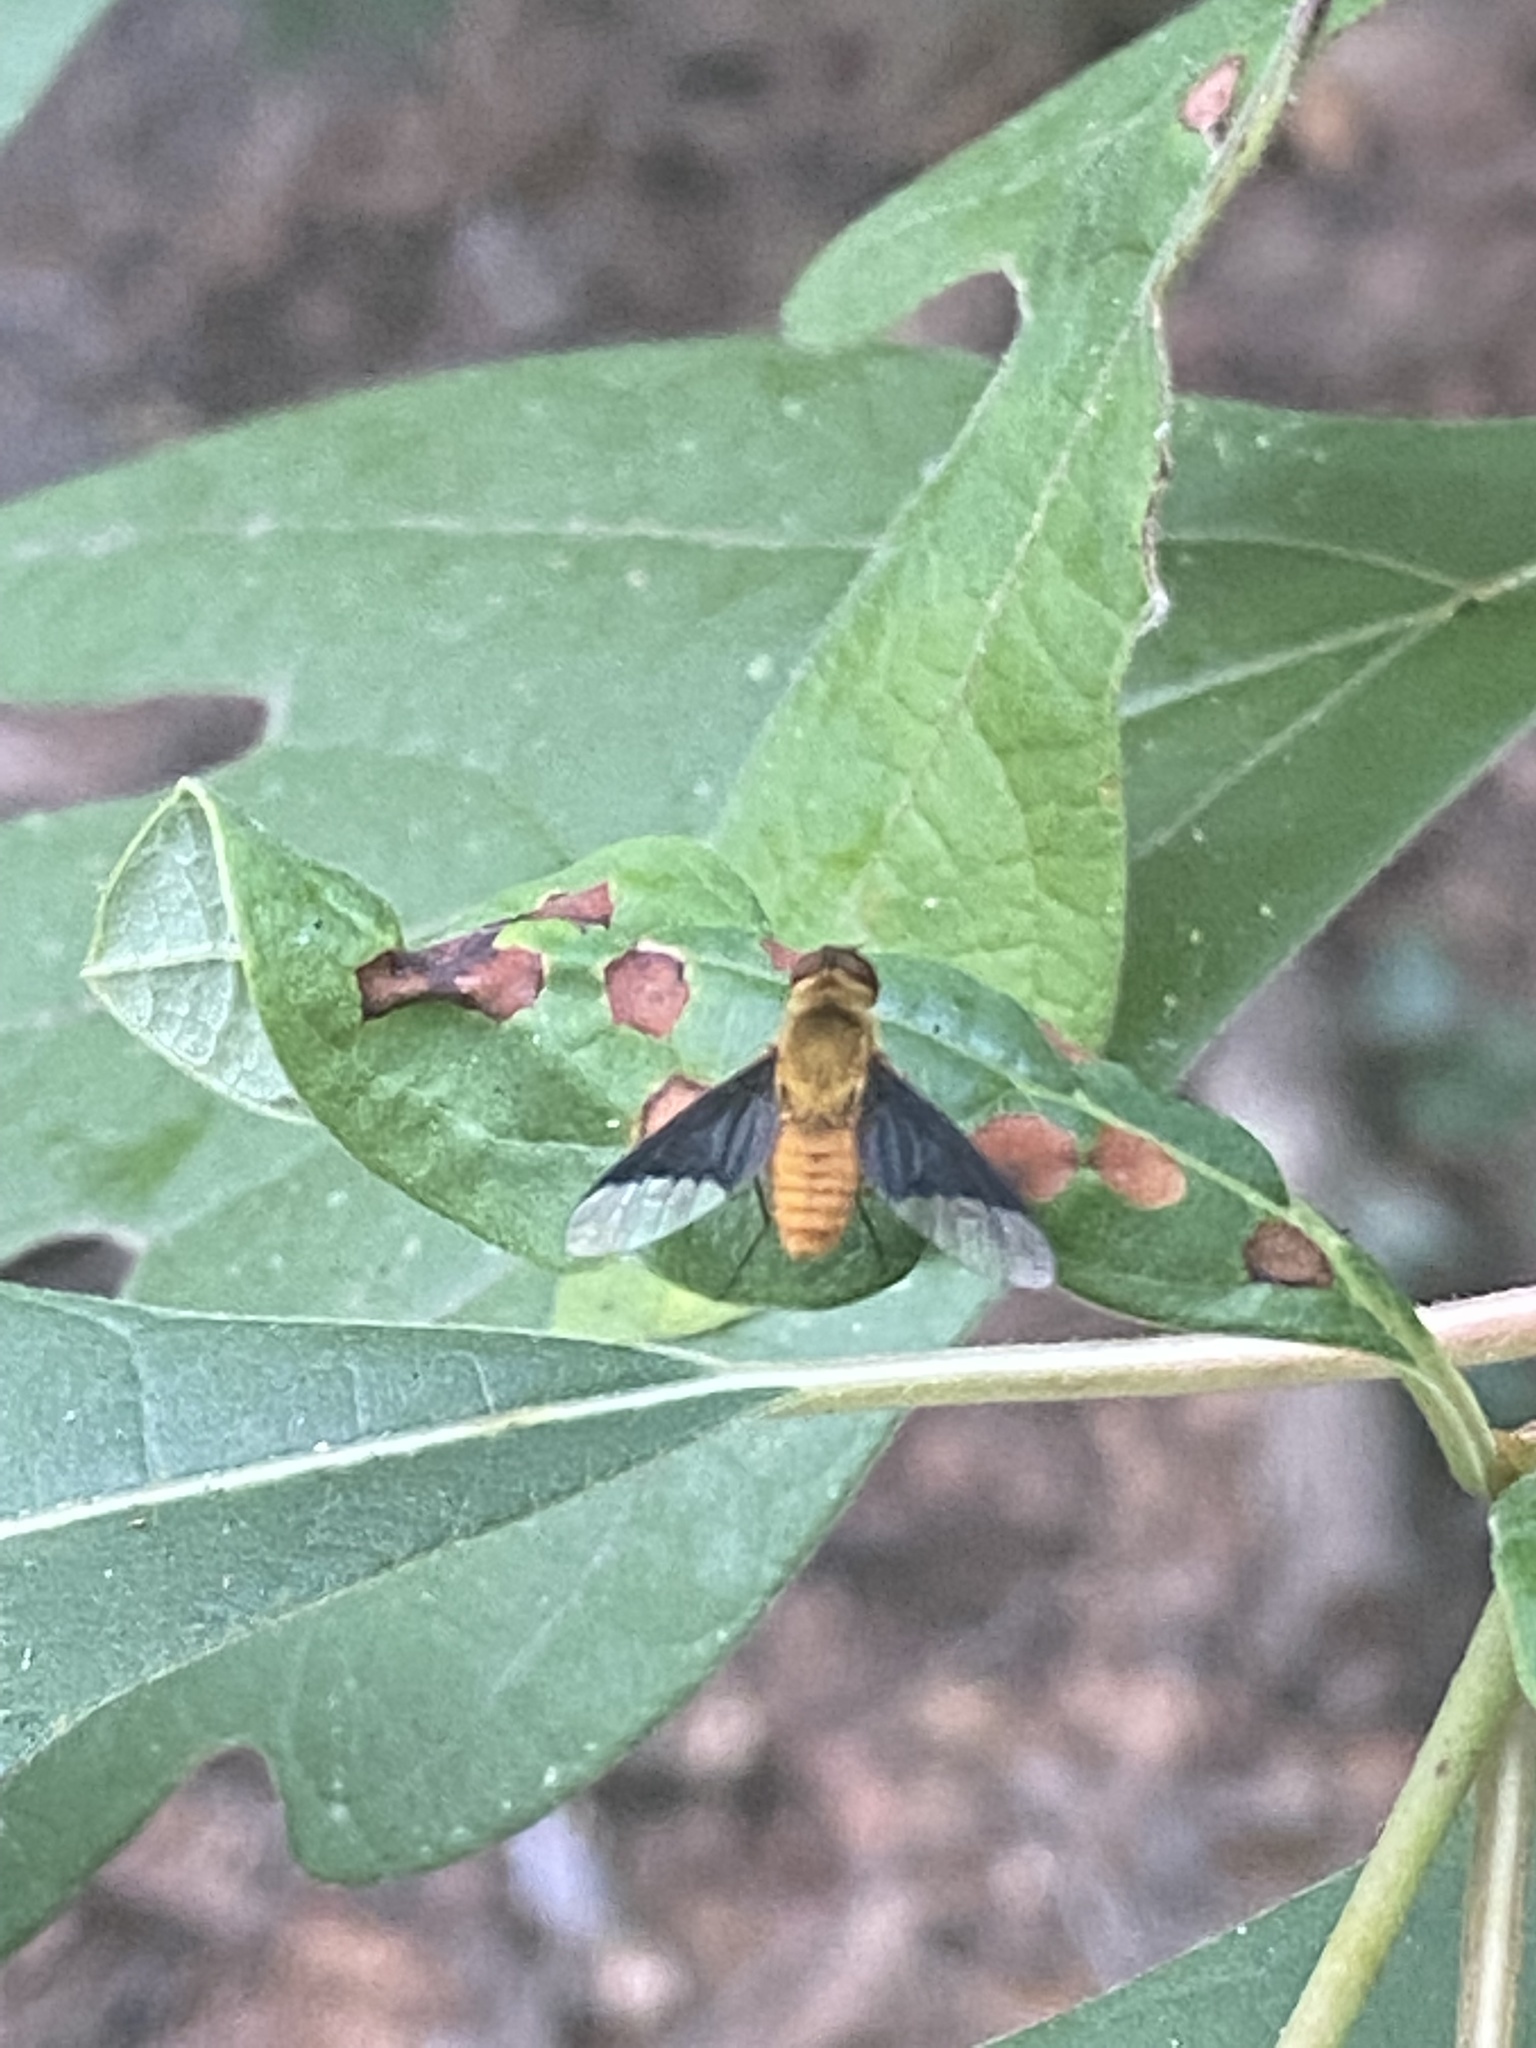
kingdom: Animalia
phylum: Arthropoda
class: Insecta
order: Diptera
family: Bombyliidae
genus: Chrysanthrax
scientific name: Chrysanthrax cypris
